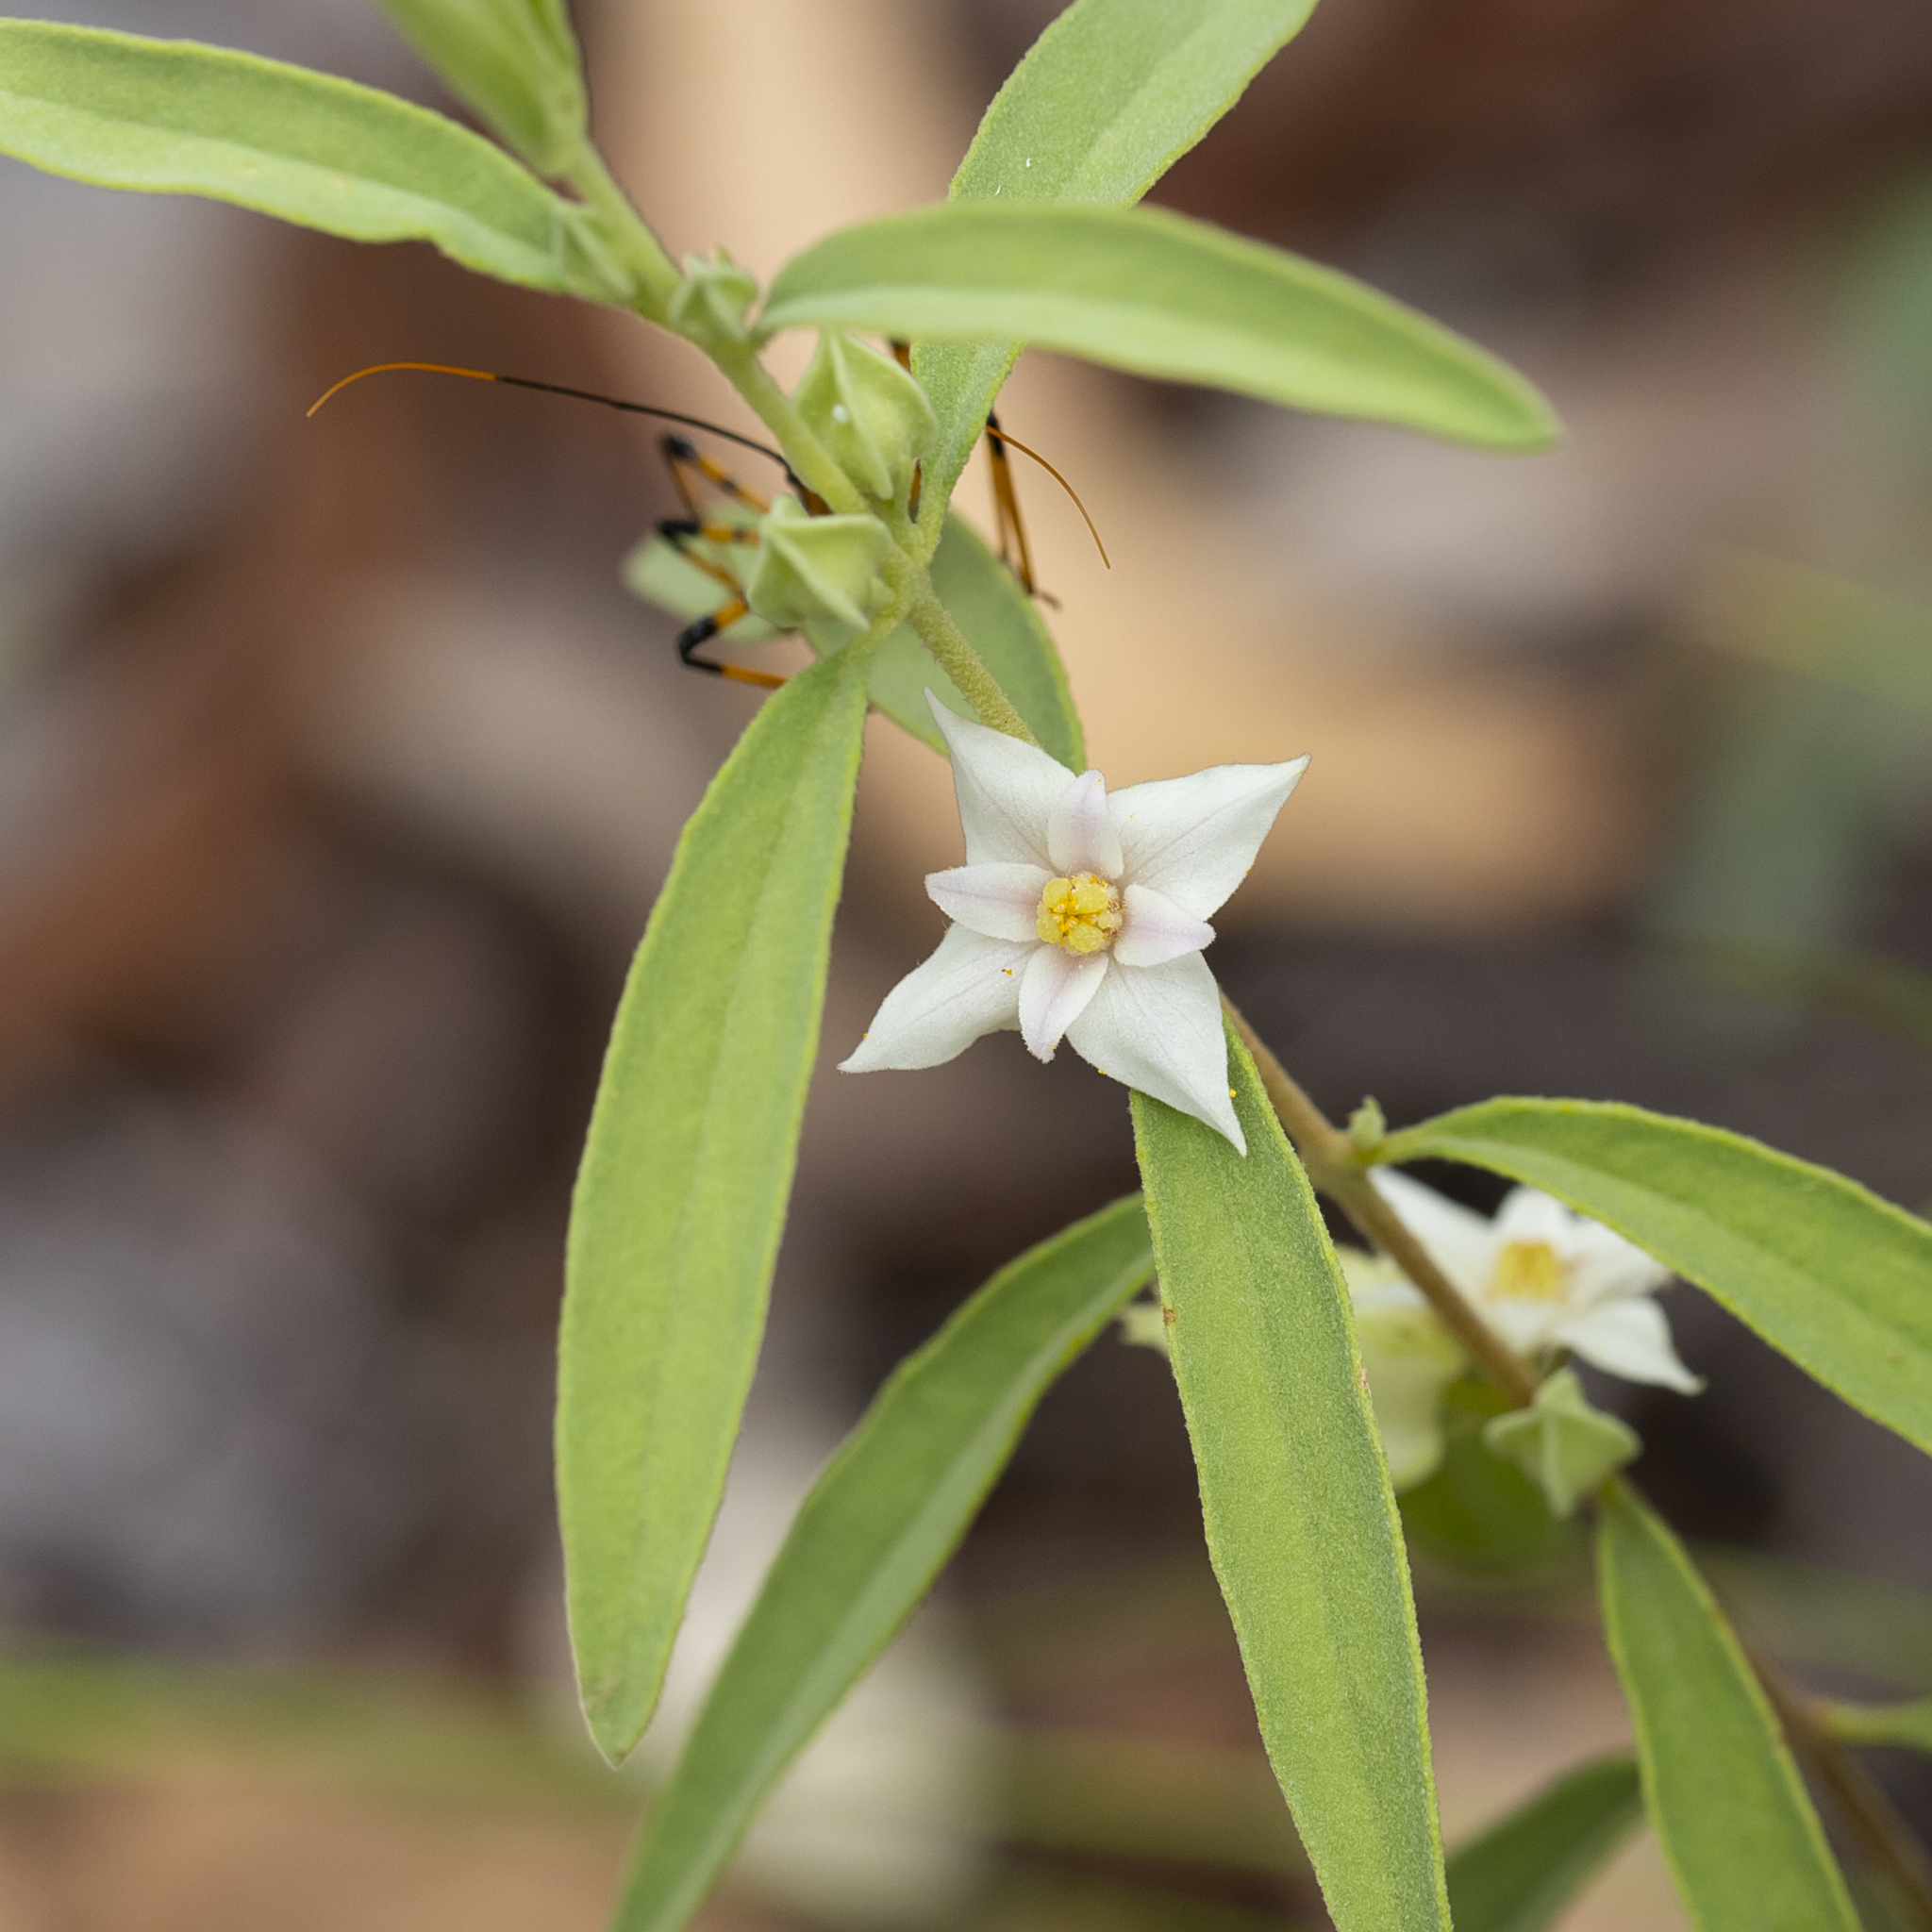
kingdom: Plantae
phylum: Tracheophyta
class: Magnoliopsida
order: Sapindales
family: Rutaceae
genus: Boronia
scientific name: Boronia grandisepala
